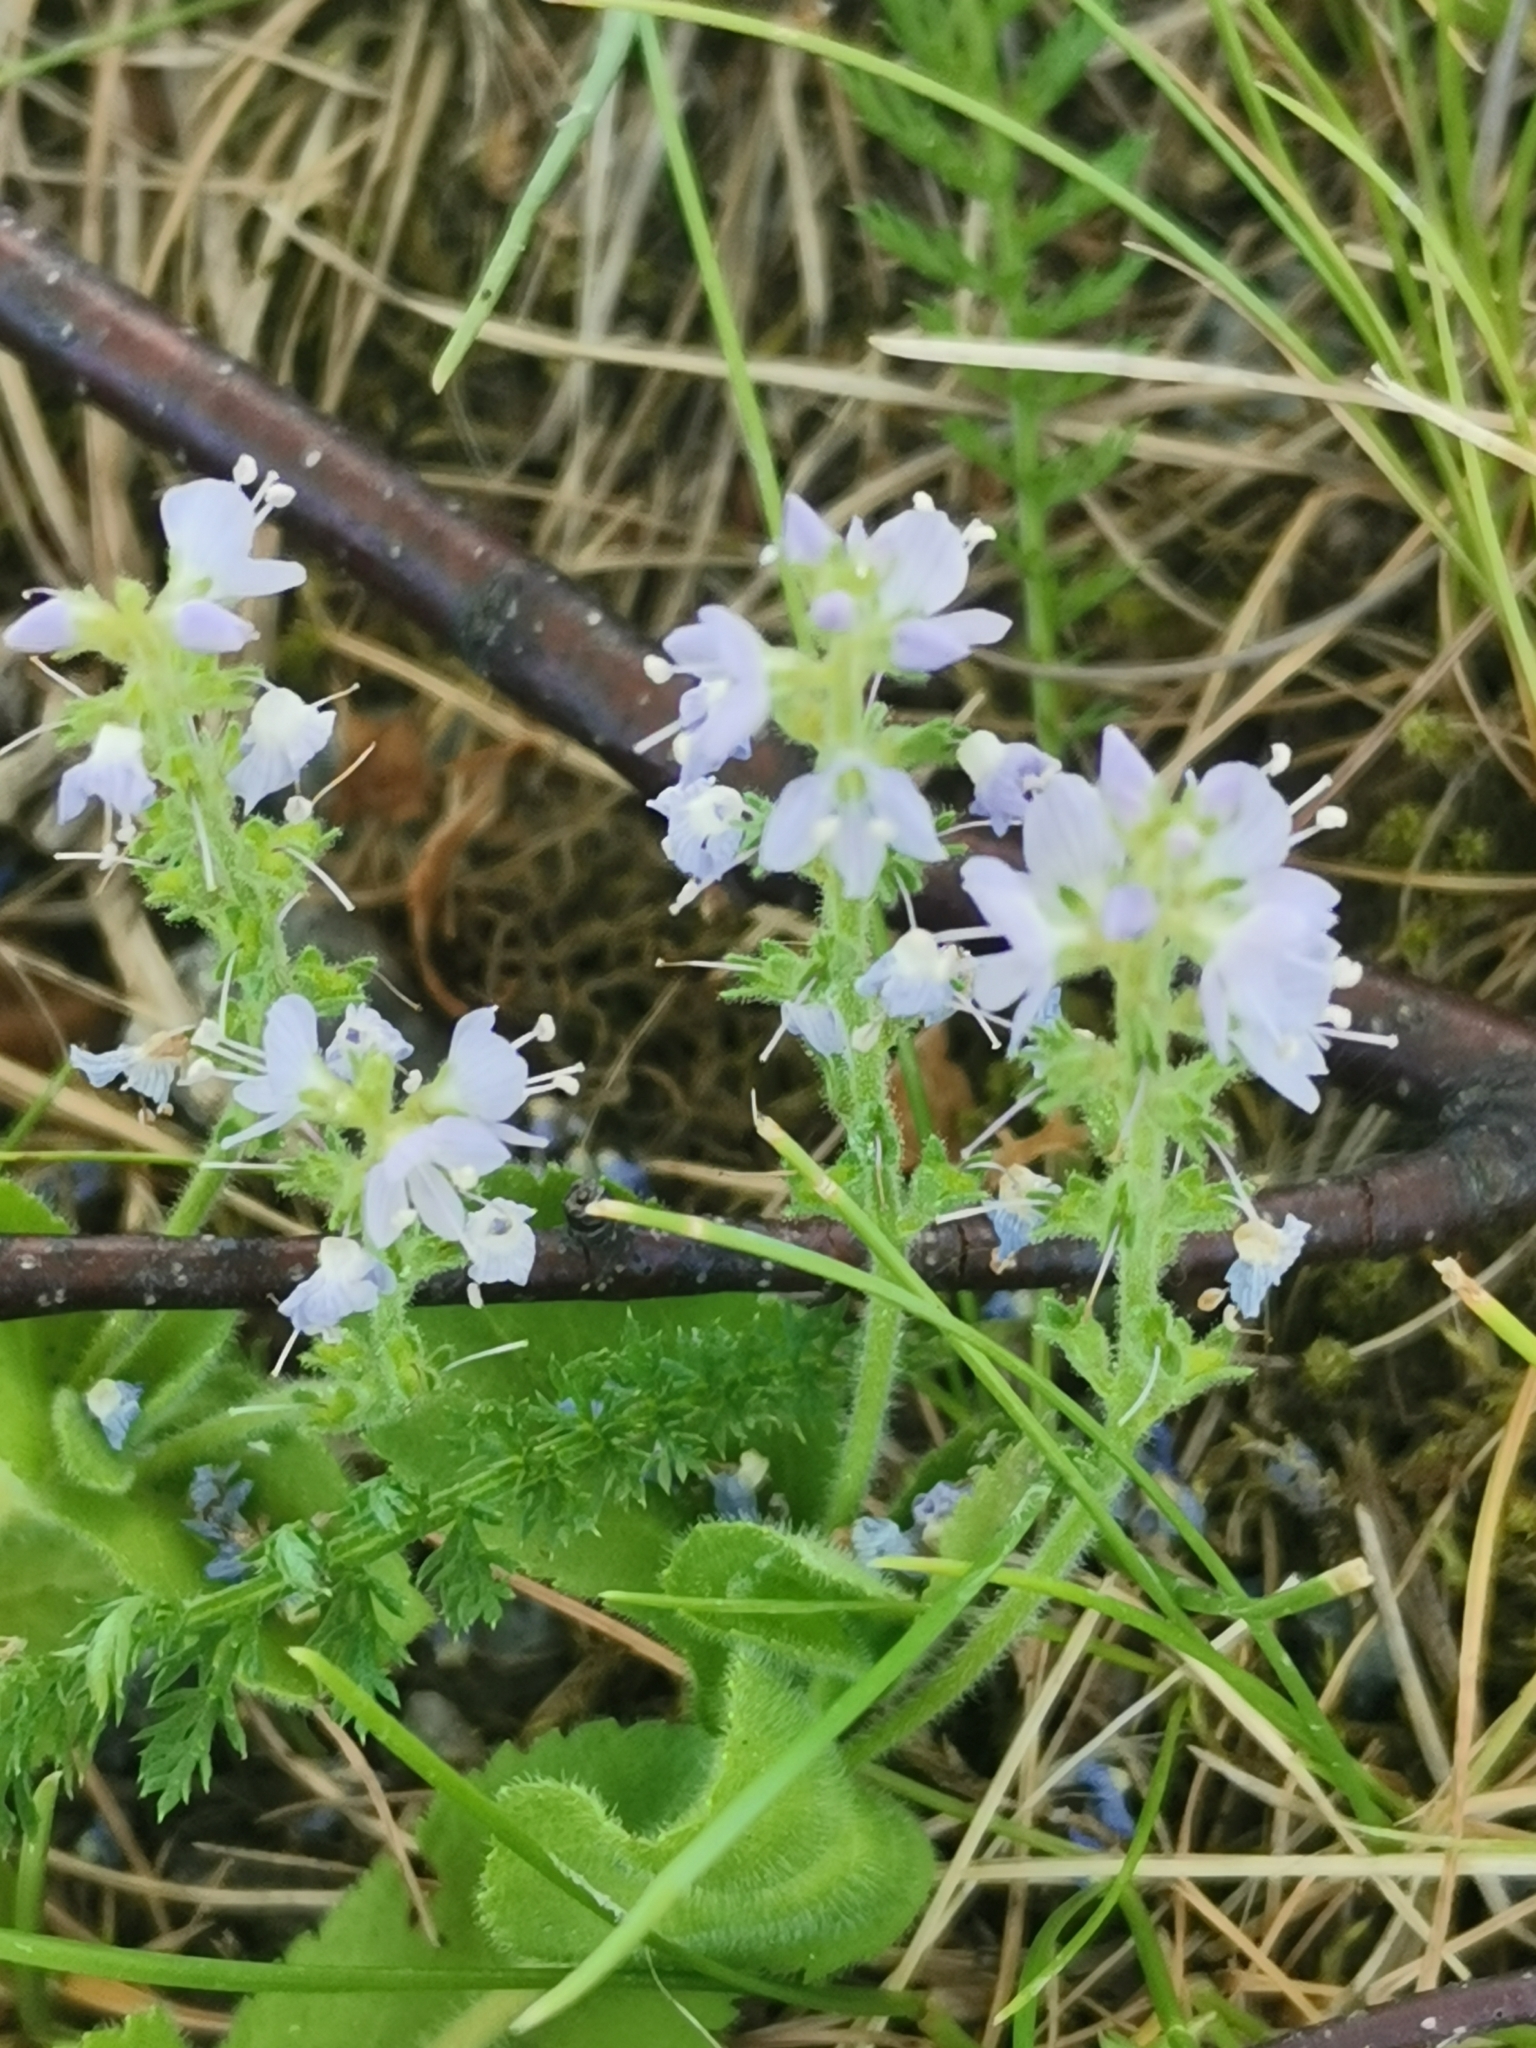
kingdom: Plantae
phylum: Tracheophyta
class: Magnoliopsida
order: Lamiales
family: Plantaginaceae
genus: Veronica
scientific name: Veronica officinalis
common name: Common speedwell
